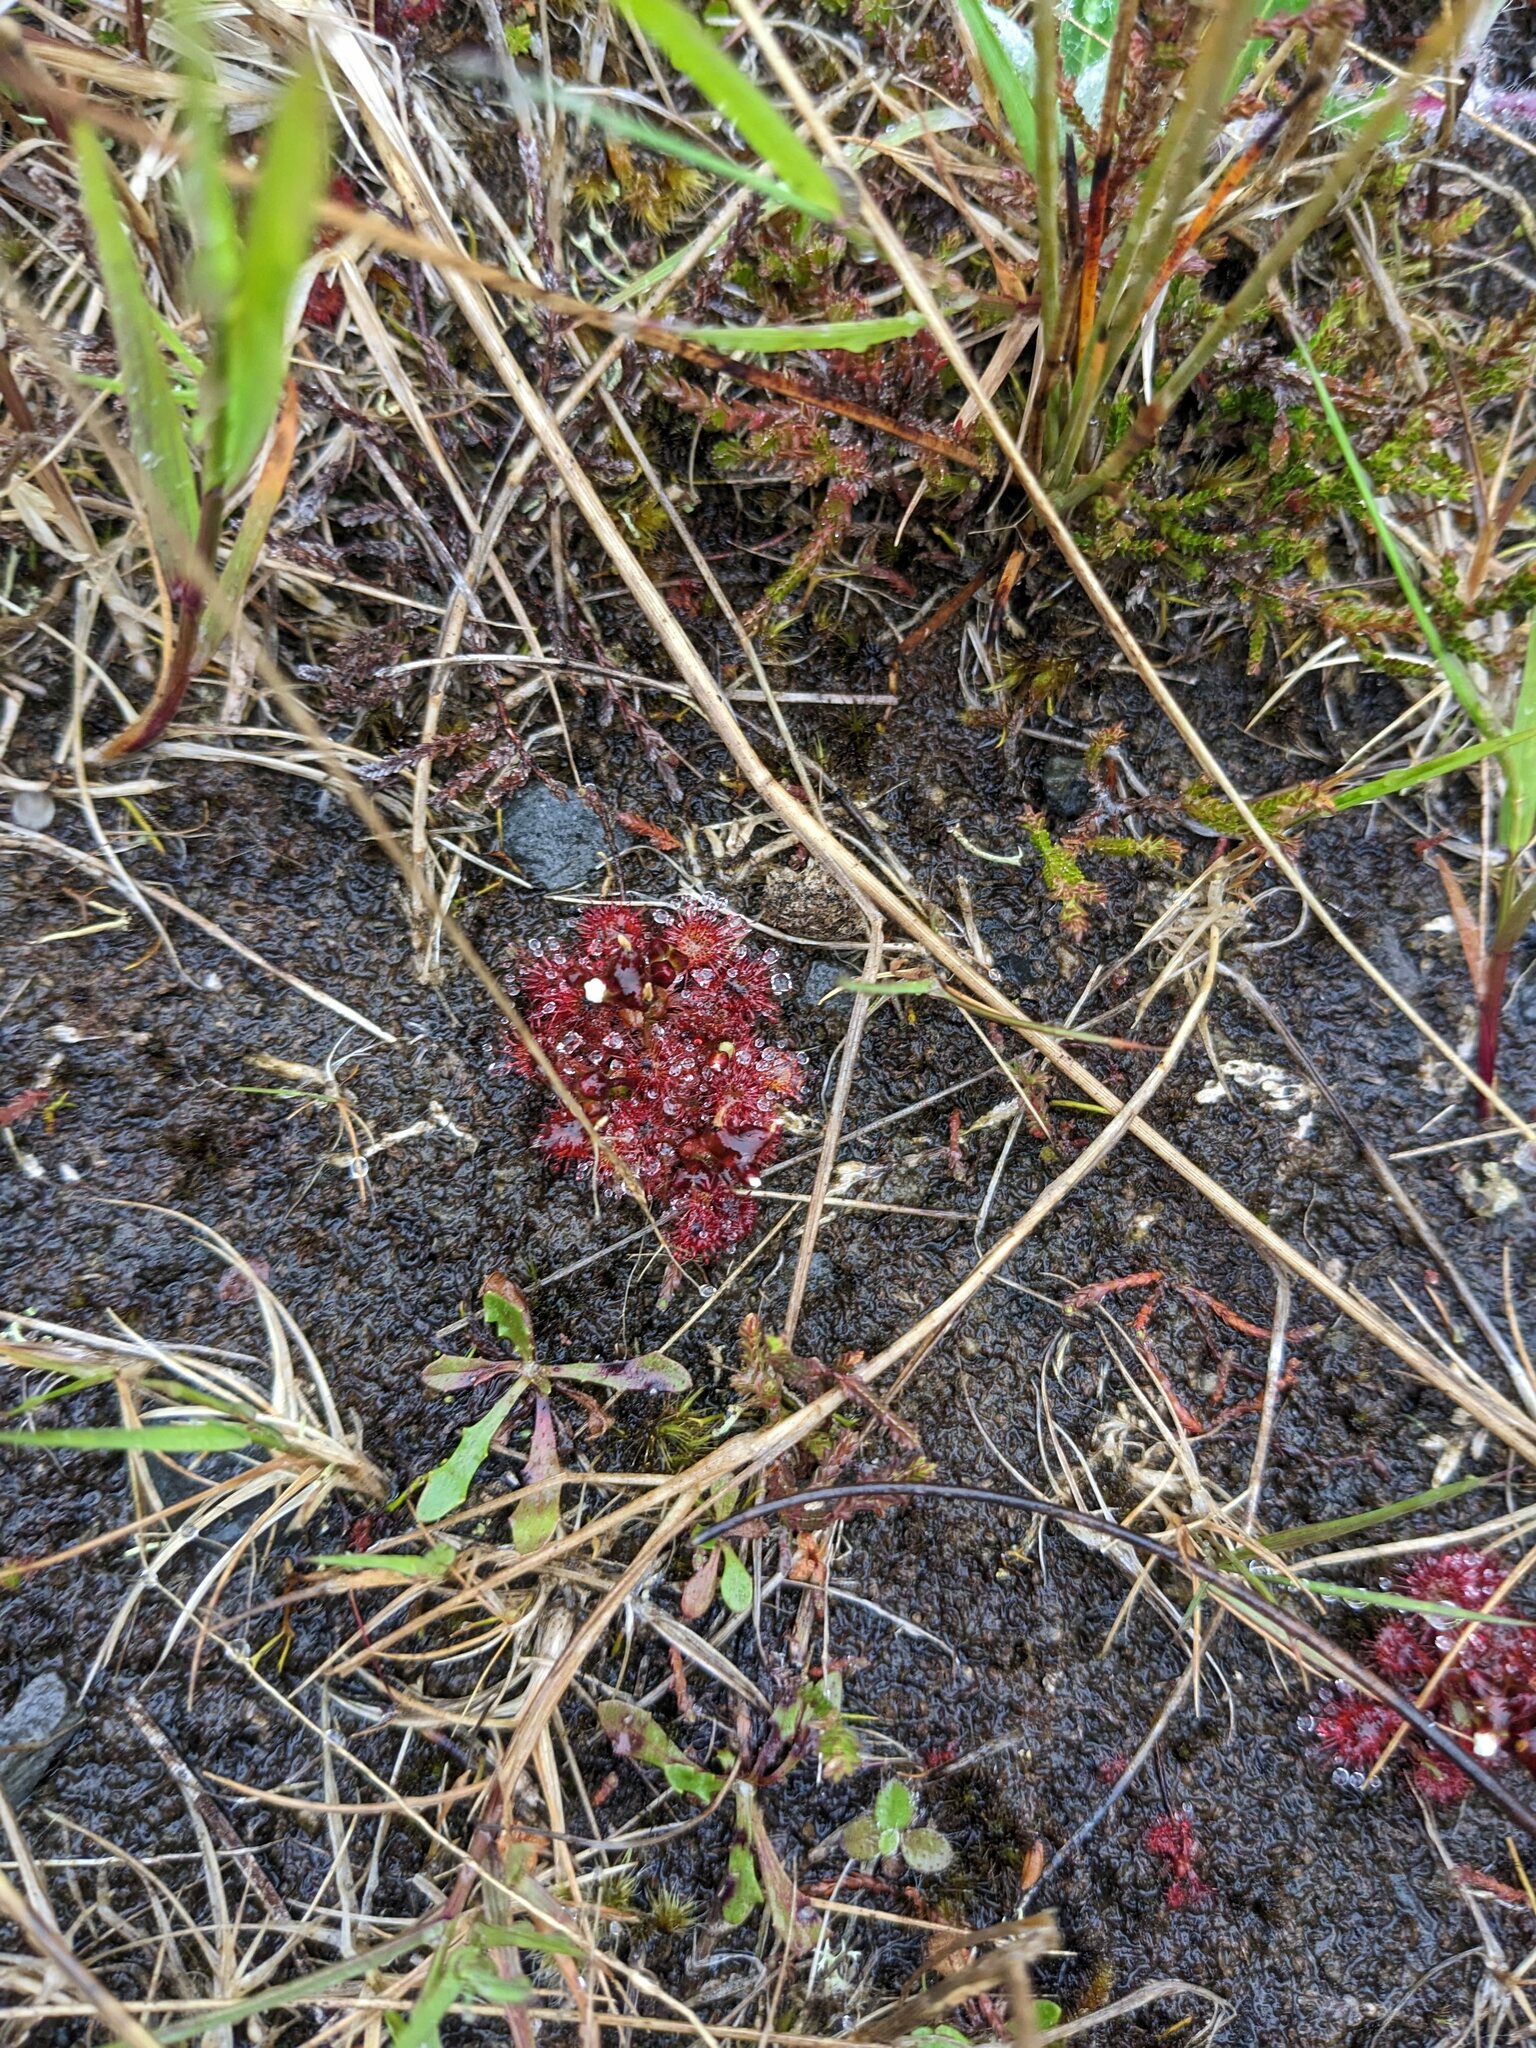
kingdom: Plantae
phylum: Tracheophyta
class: Magnoliopsida
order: Caryophyllales
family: Droseraceae
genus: Drosera
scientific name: Drosera spatulata
